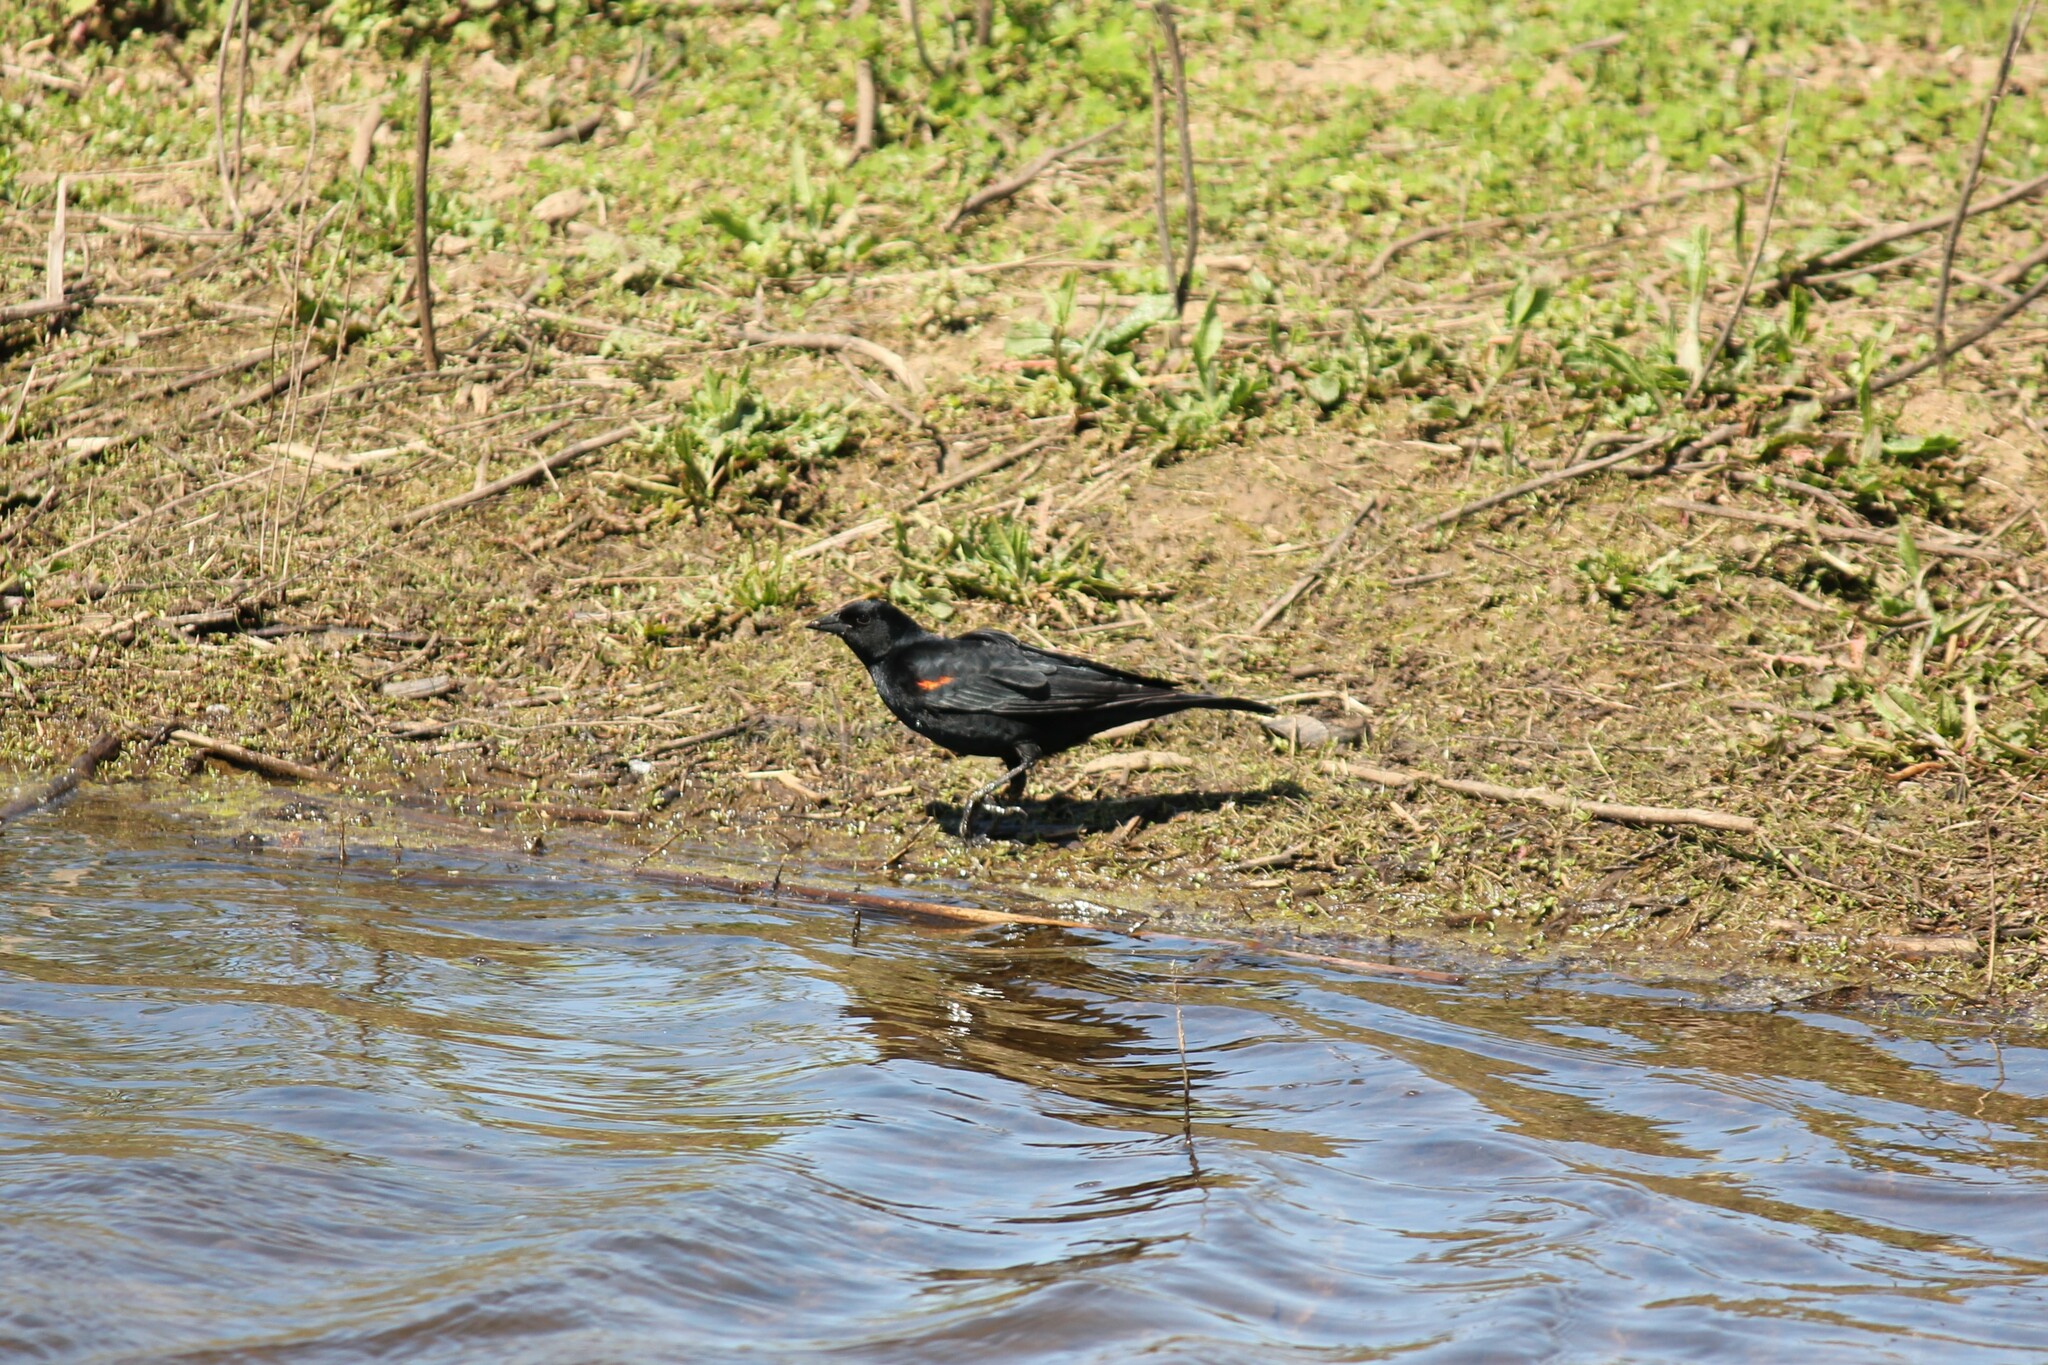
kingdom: Animalia
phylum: Chordata
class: Aves
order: Passeriformes
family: Icteridae
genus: Agelaius
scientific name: Agelaius phoeniceus
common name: Red-winged blackbird
